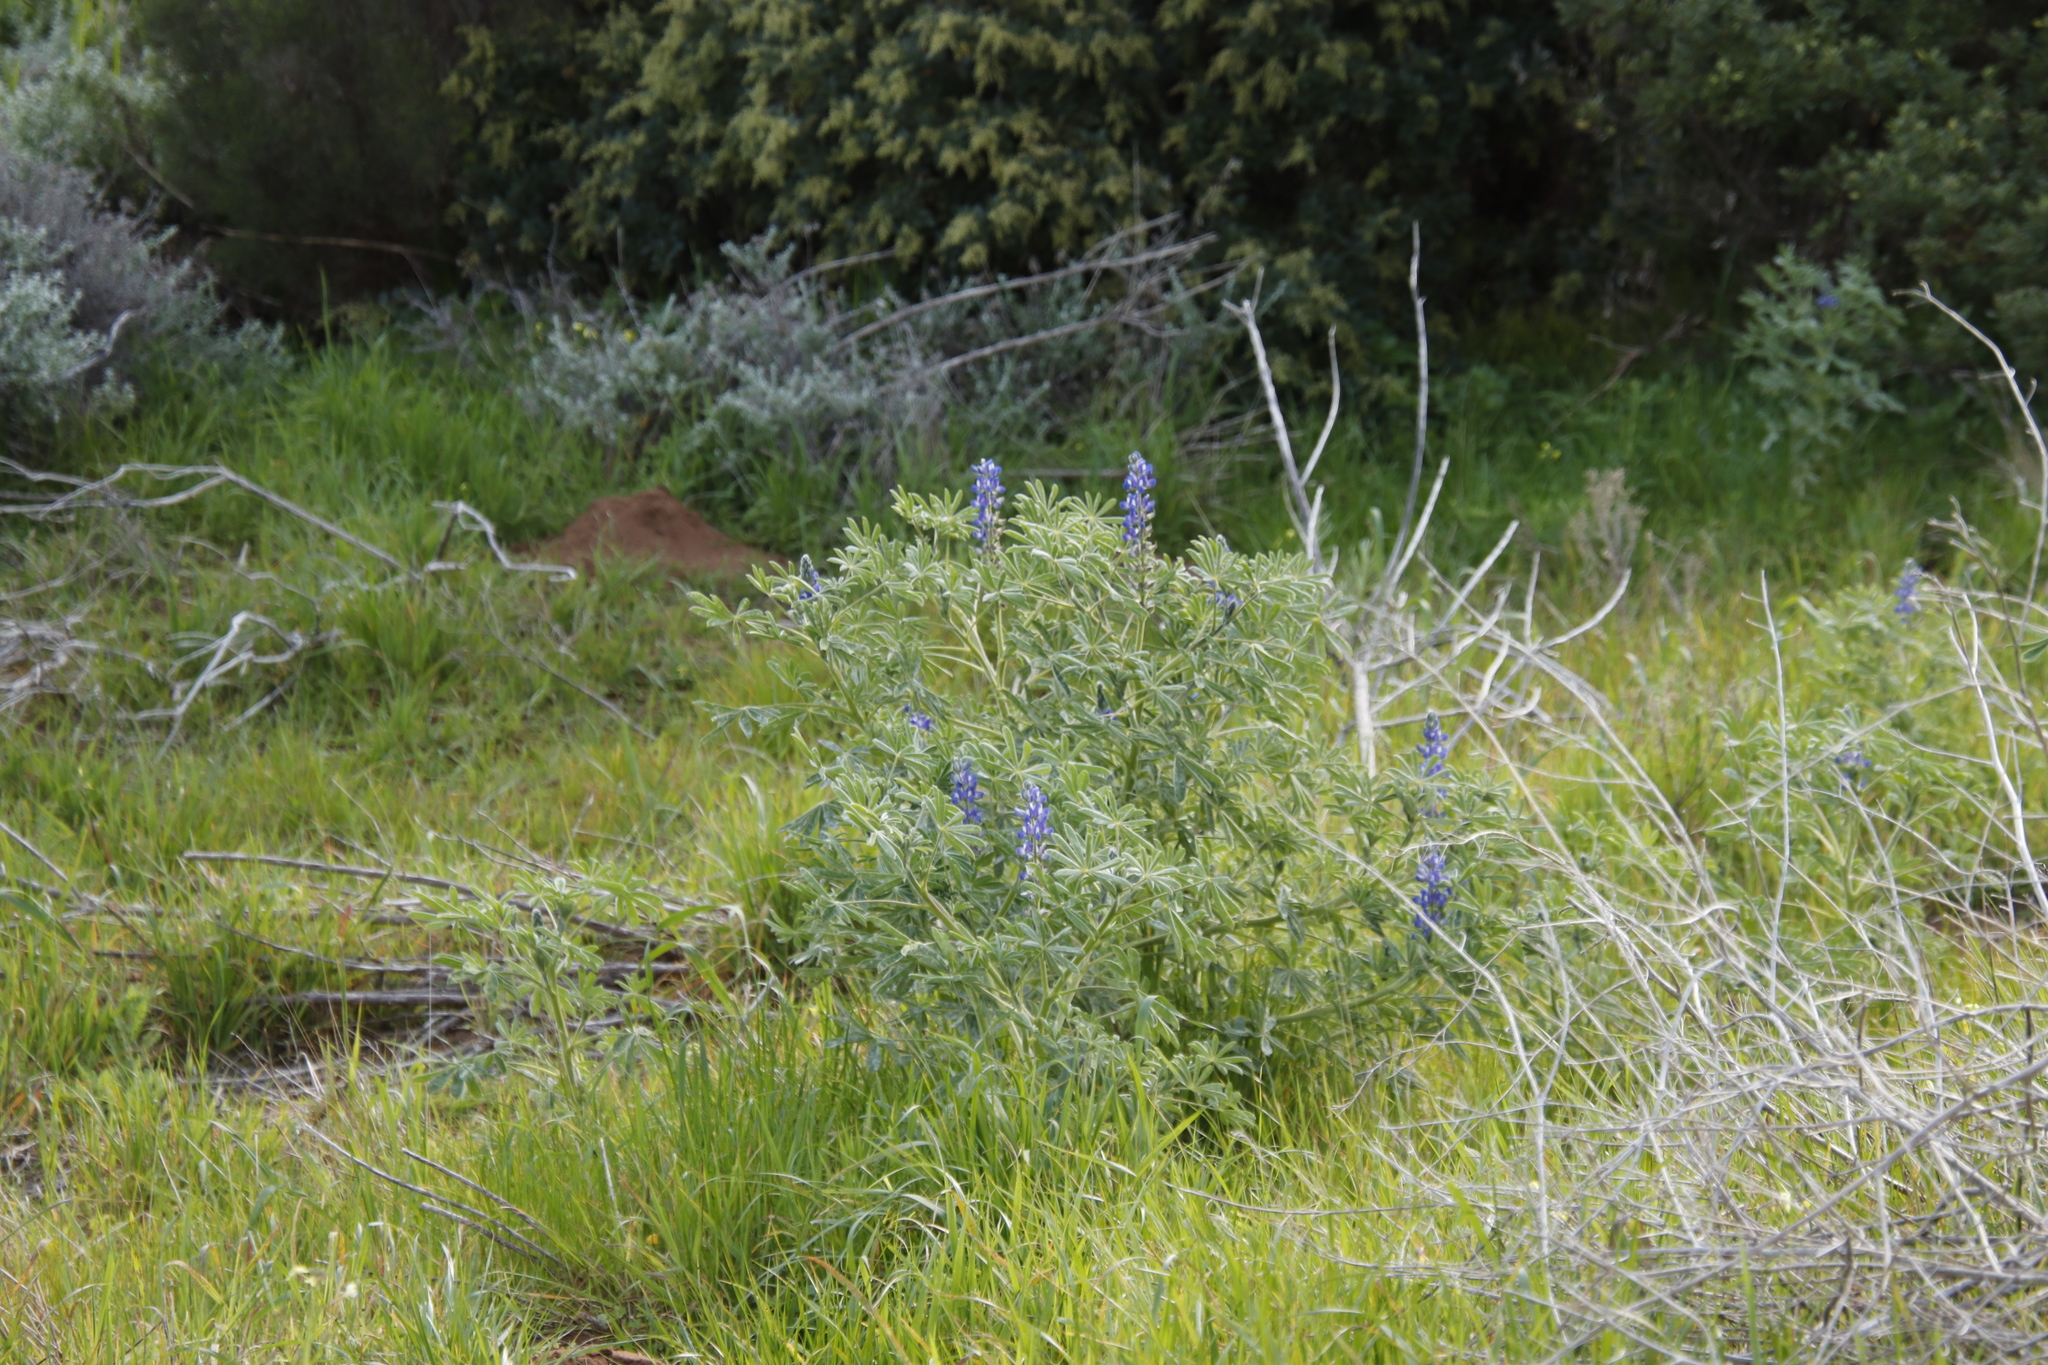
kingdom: Plantae
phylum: Tracheophyta
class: Magnoliopsida
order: Fabales
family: Fabaceae
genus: Lupinus
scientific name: Lupinus cosentinii
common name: Hairy blue lupin
